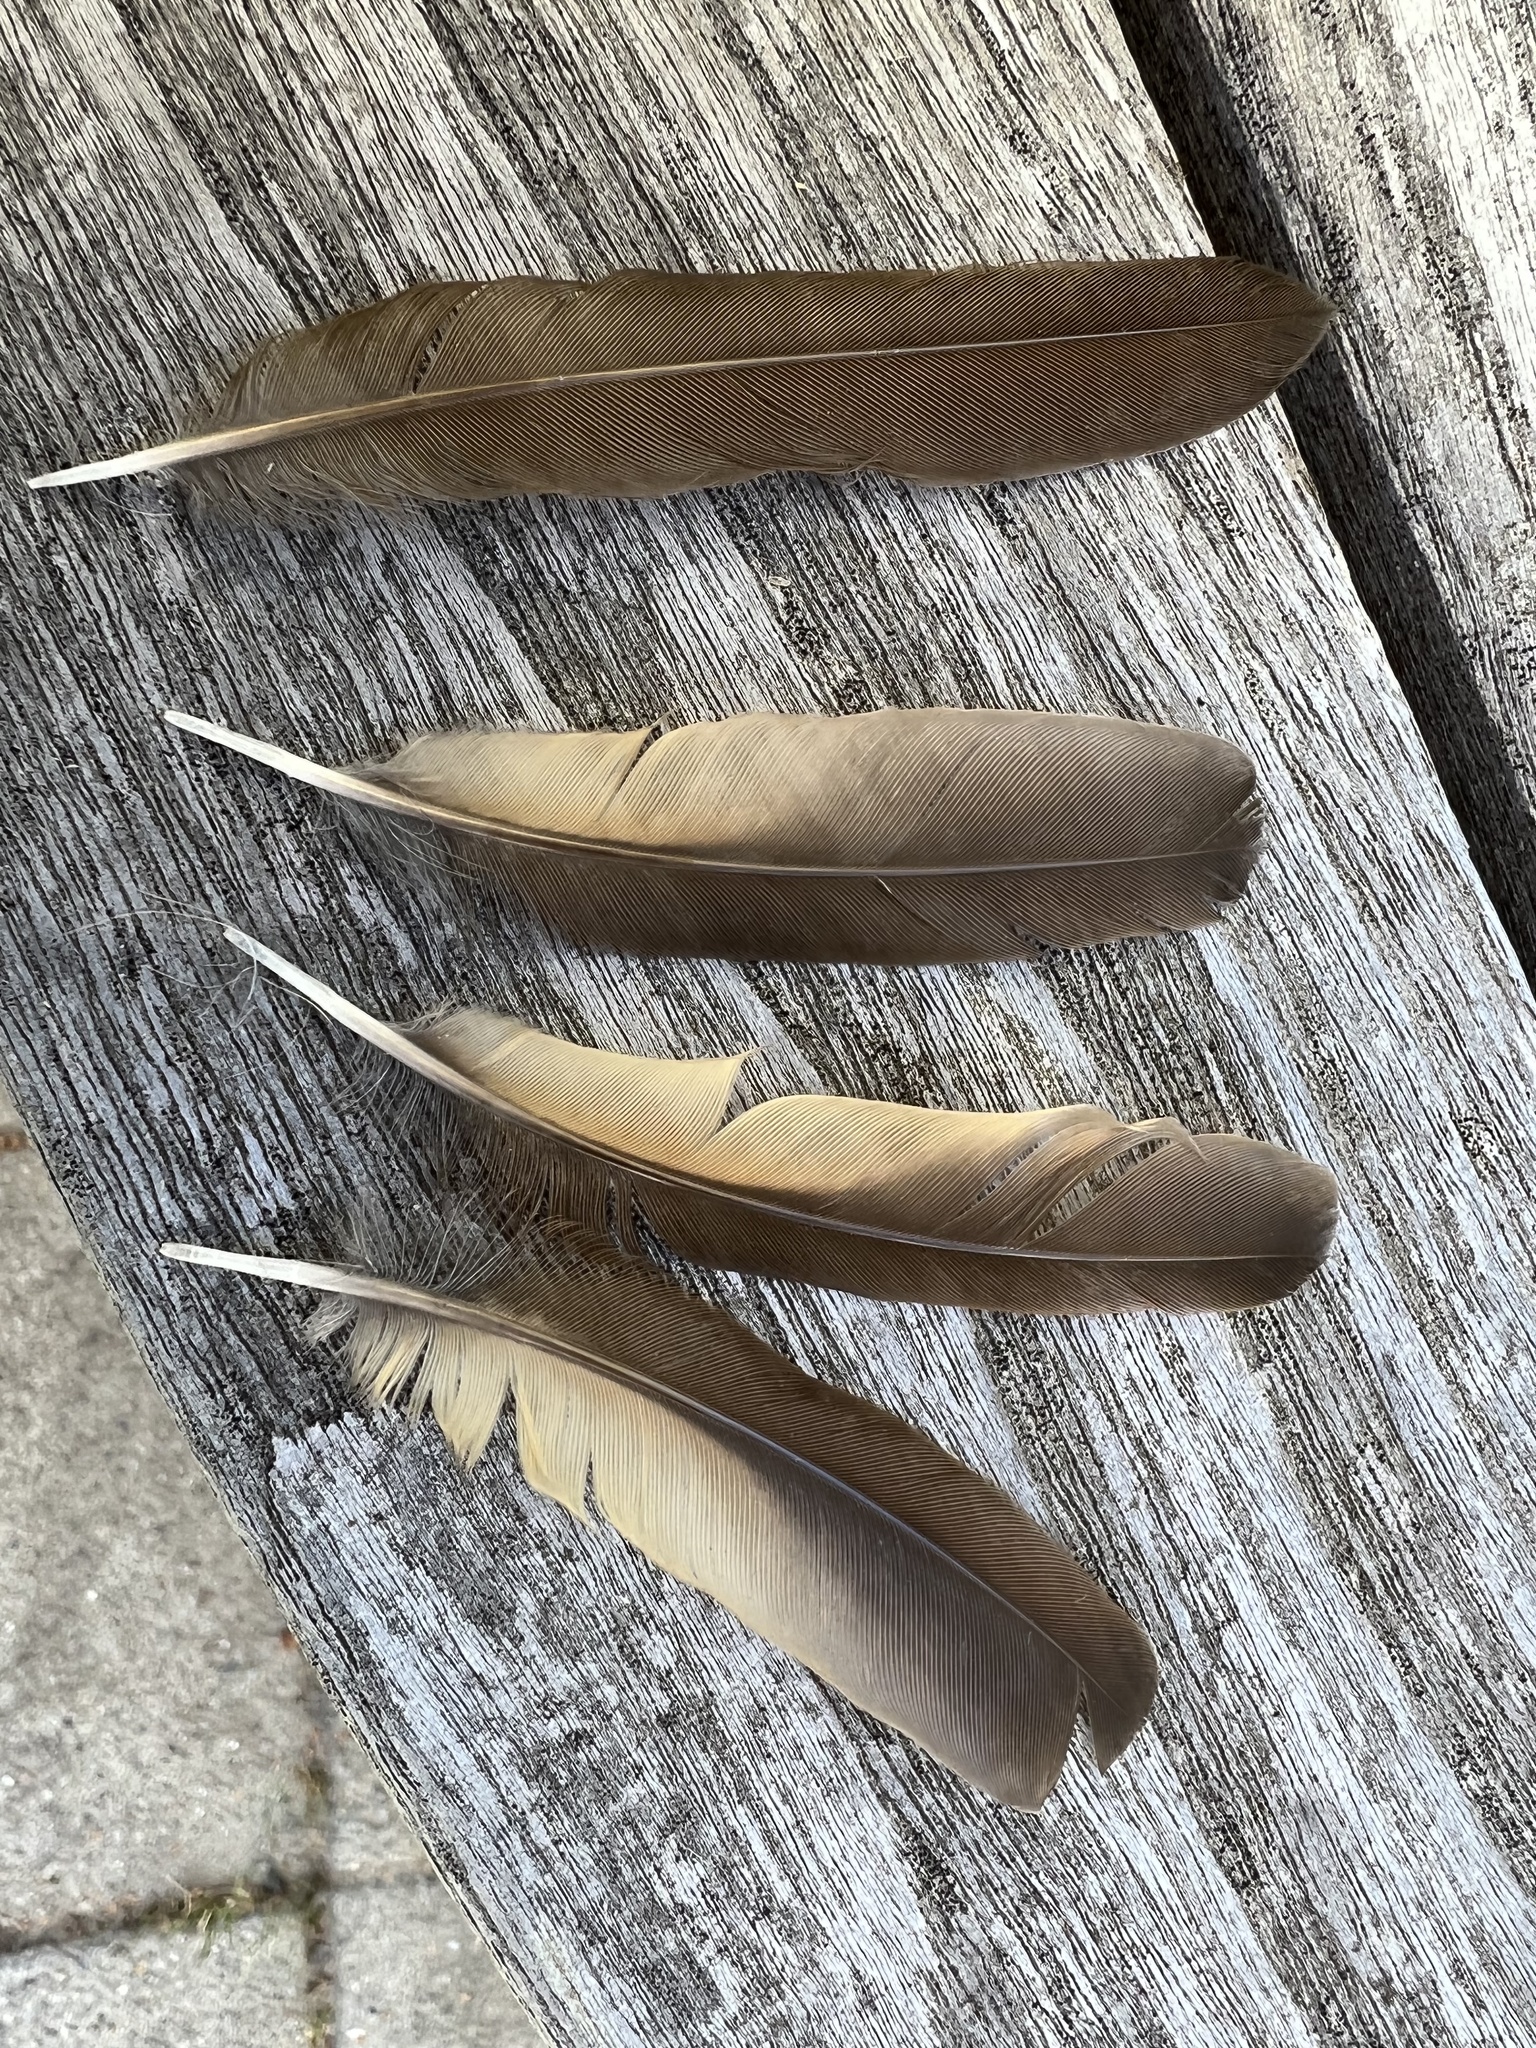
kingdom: Animalia
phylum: Chordata
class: Aves
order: Passeriformes
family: Turdidae
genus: Turdus
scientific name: Turdus philomelos
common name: Song thrush
